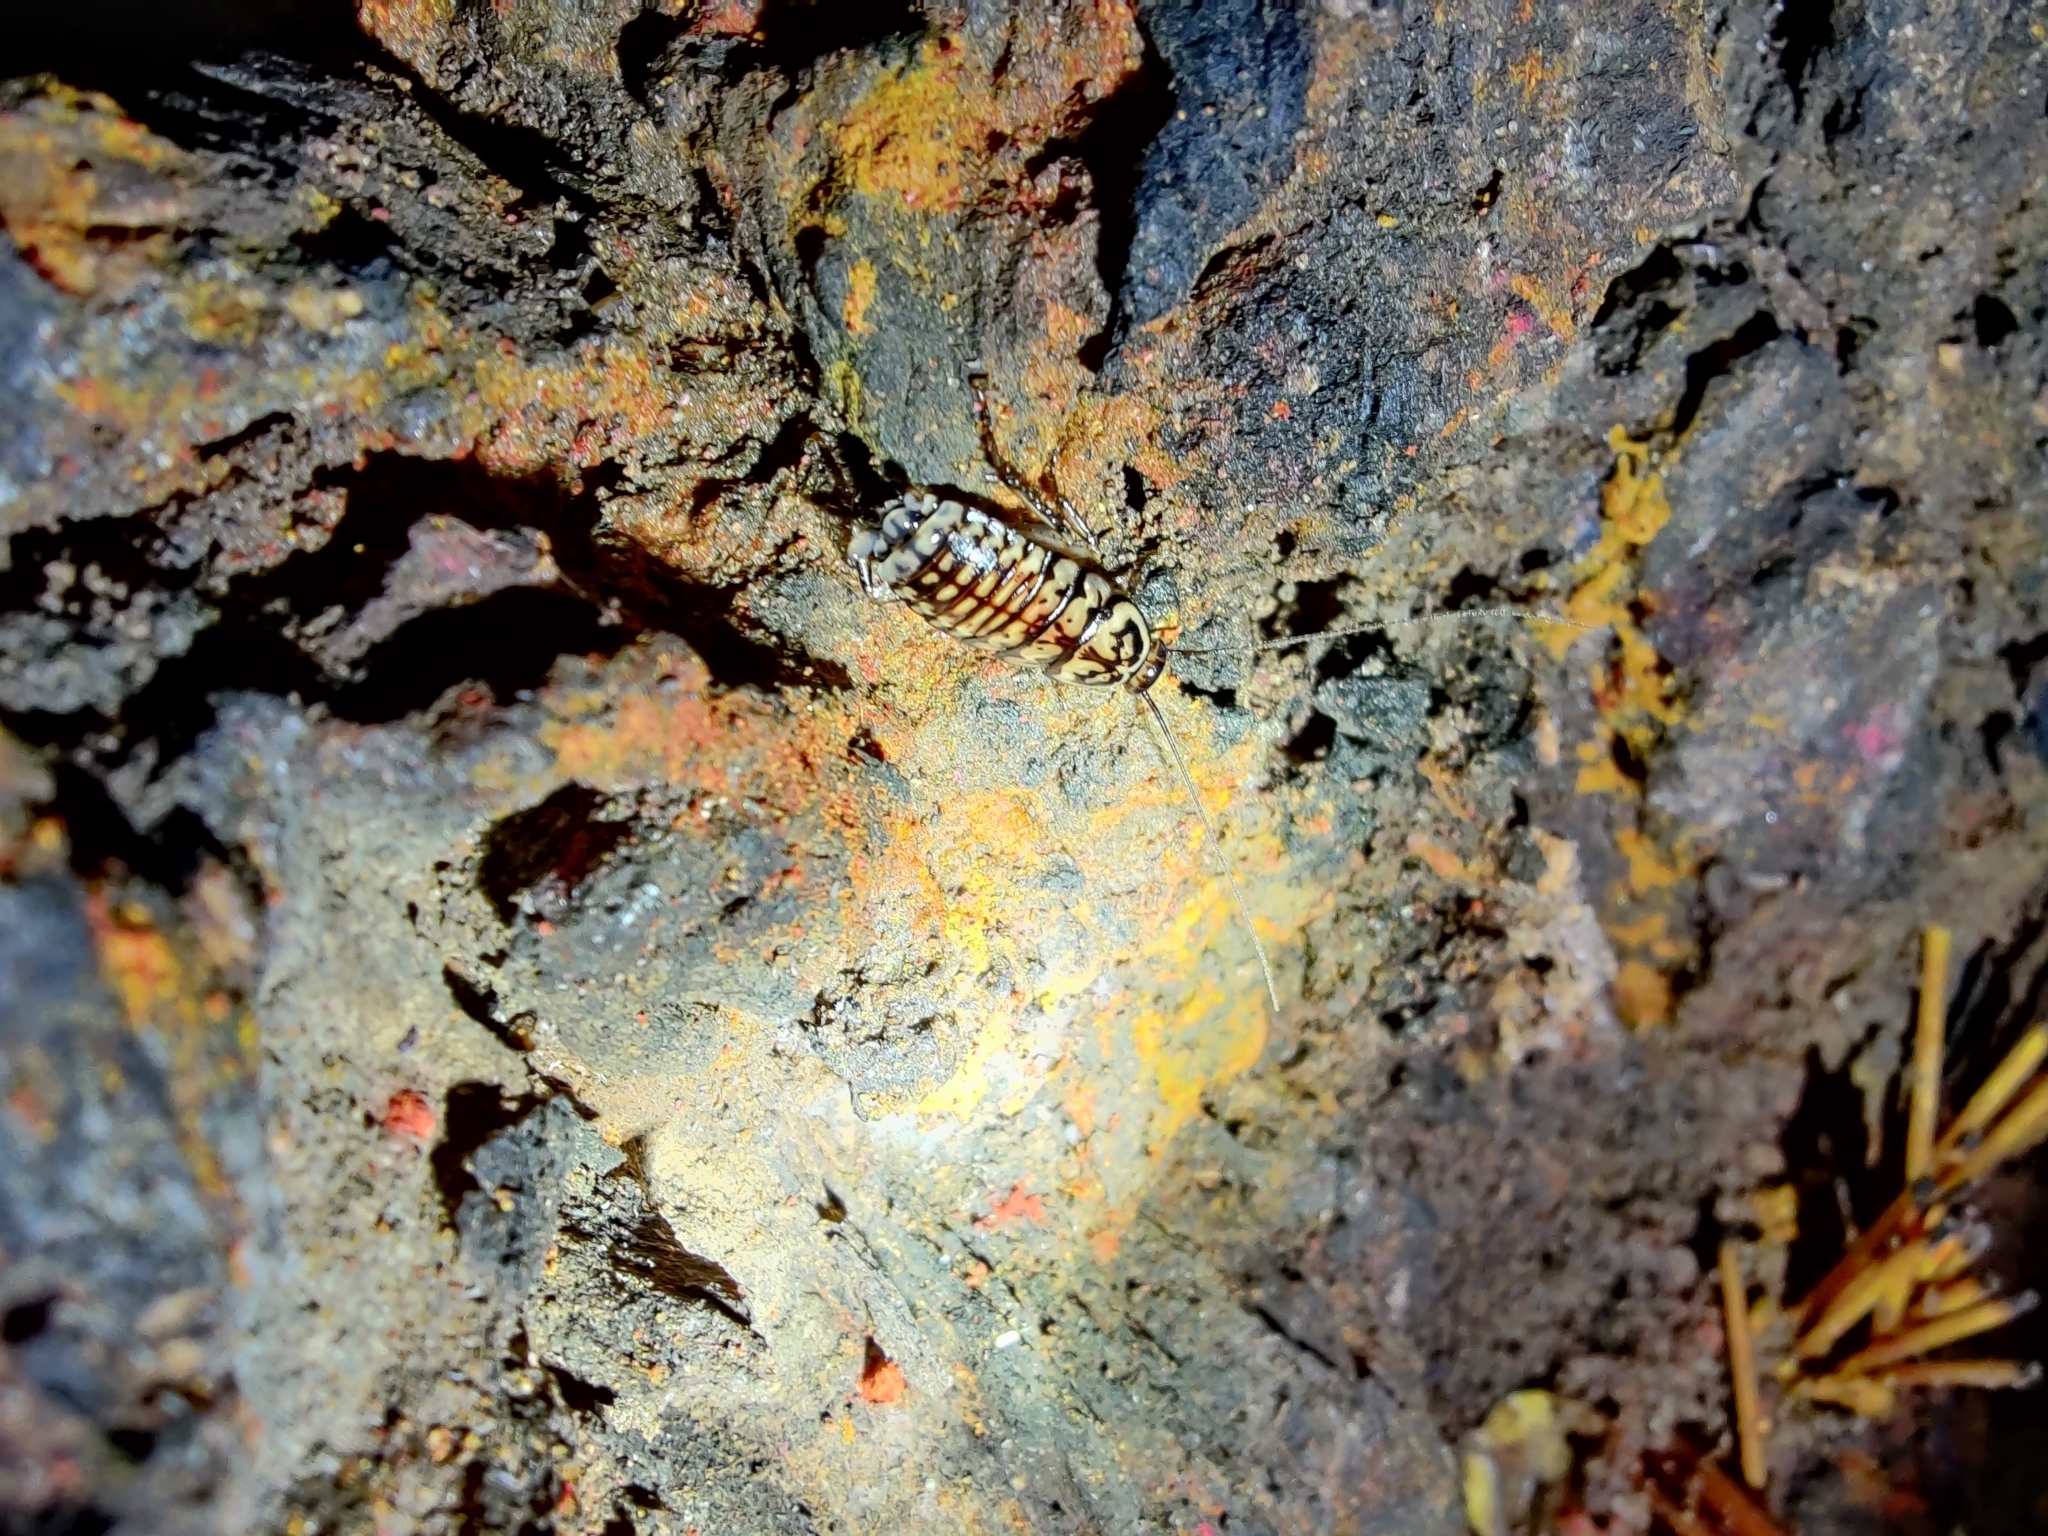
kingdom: Animalia
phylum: Arthropoda
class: Insecta
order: Blattodea
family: Blattidae
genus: Neostylopyga
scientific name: Neostylopyga rhombifolia
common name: Harlequin cockroach
